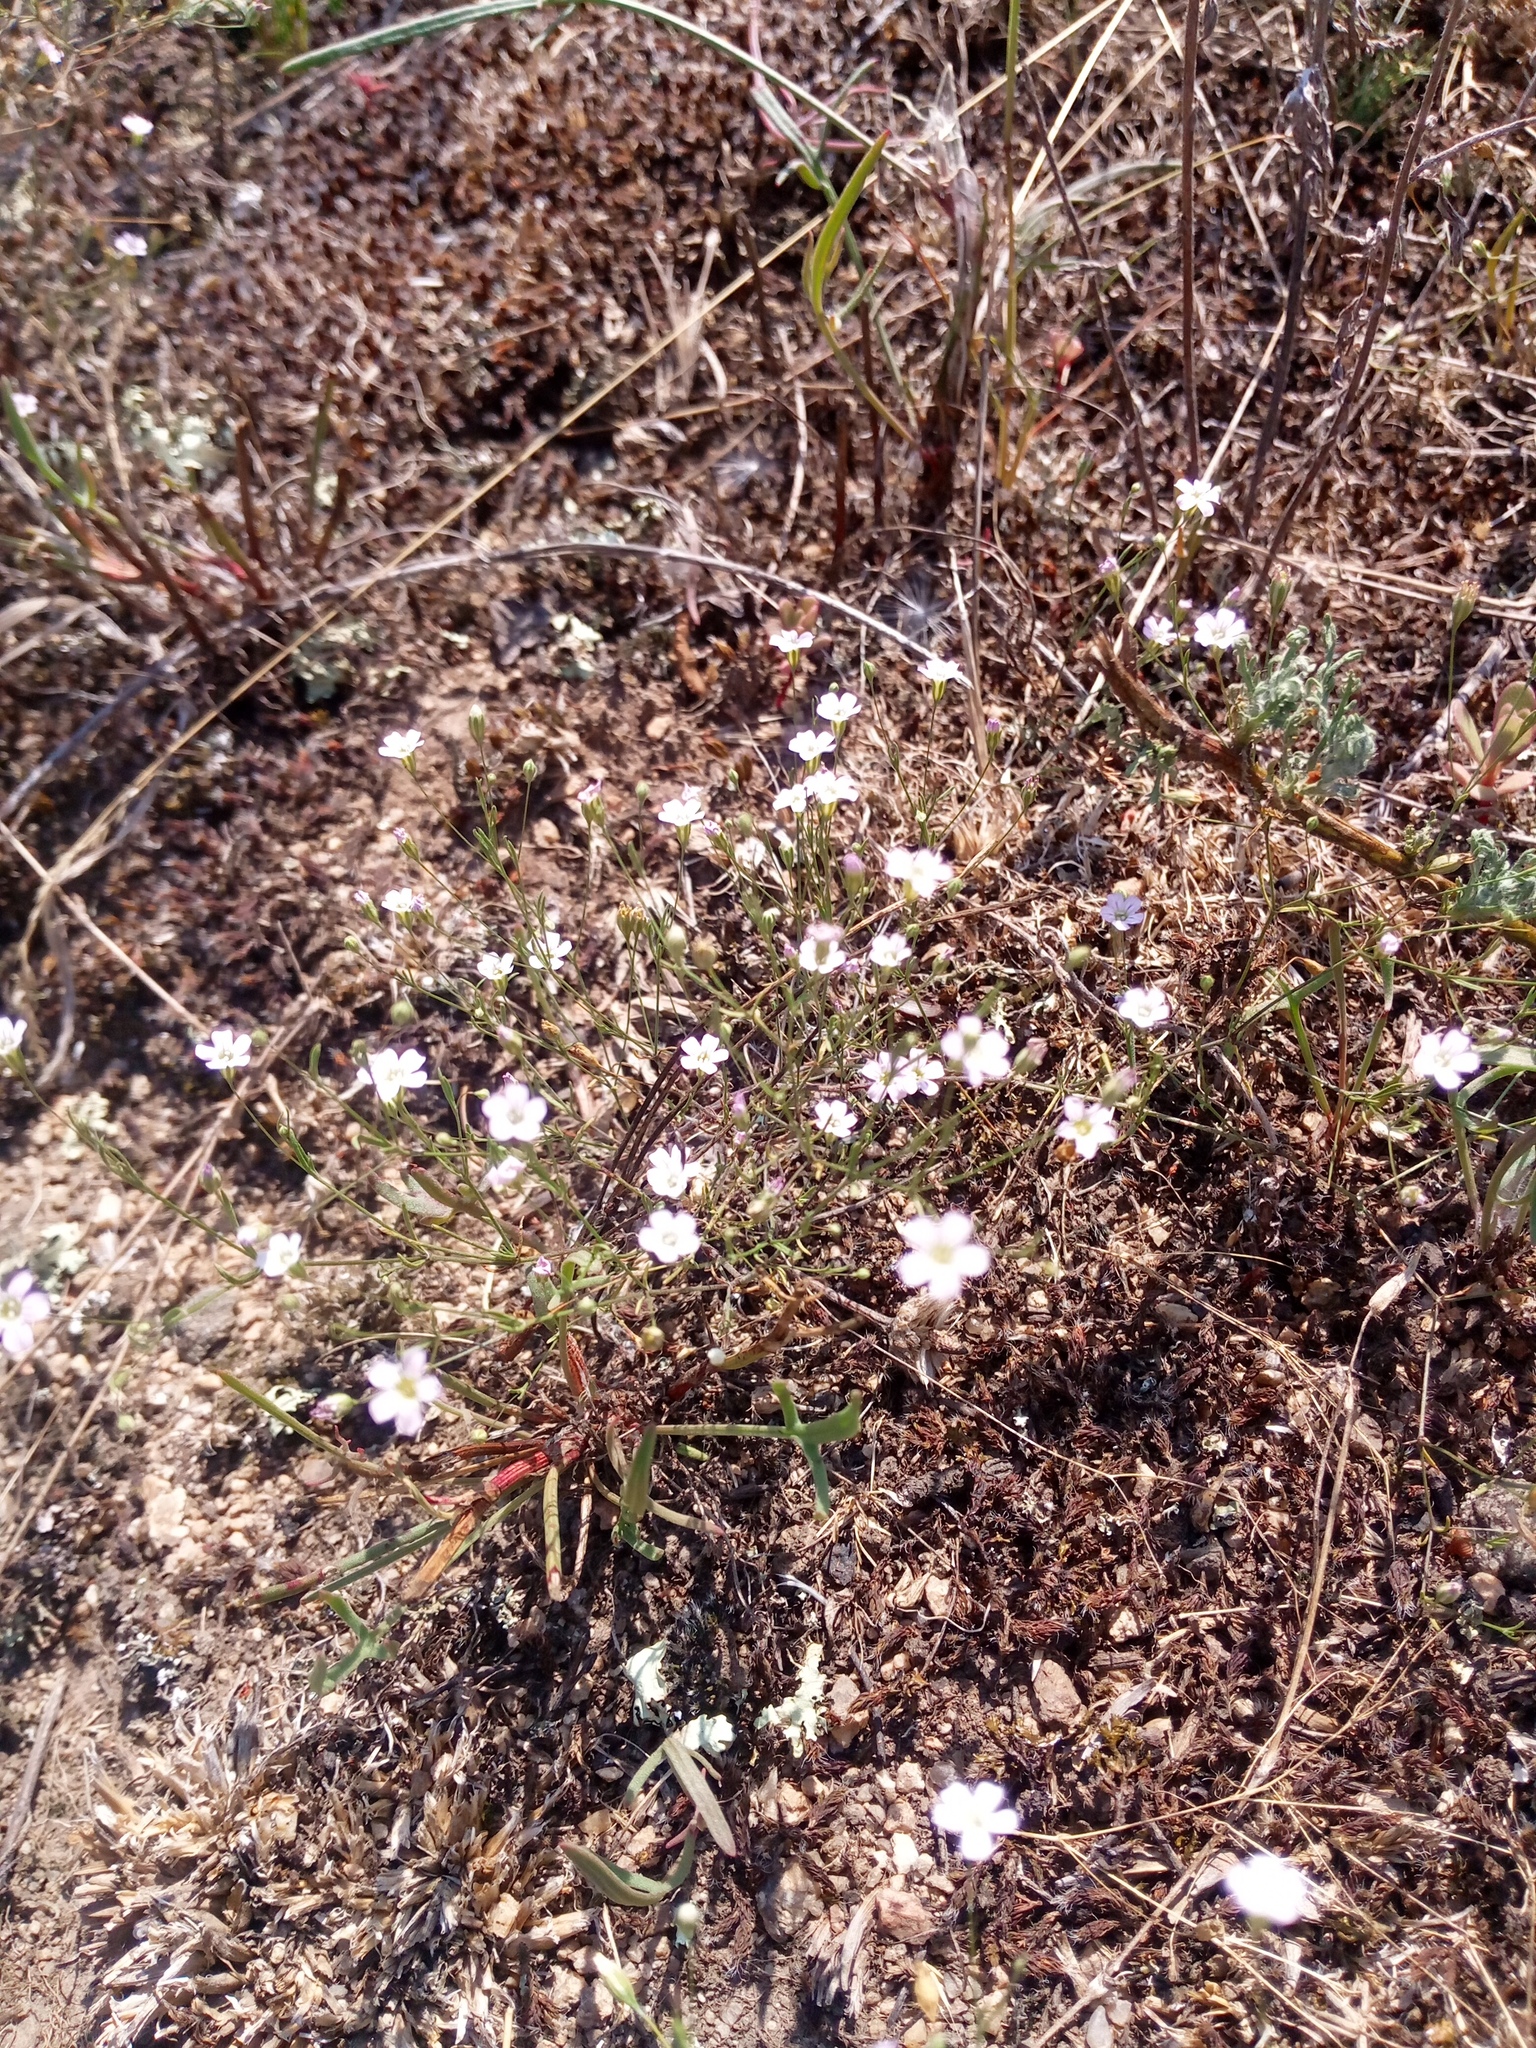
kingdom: Plantae
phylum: Tracheophyta
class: Magnoliopsida
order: Caryophyllales
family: Caryophyllaceae
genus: Psammophiliella
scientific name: Psammophiliella muralis
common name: Cushion baby's-breath
